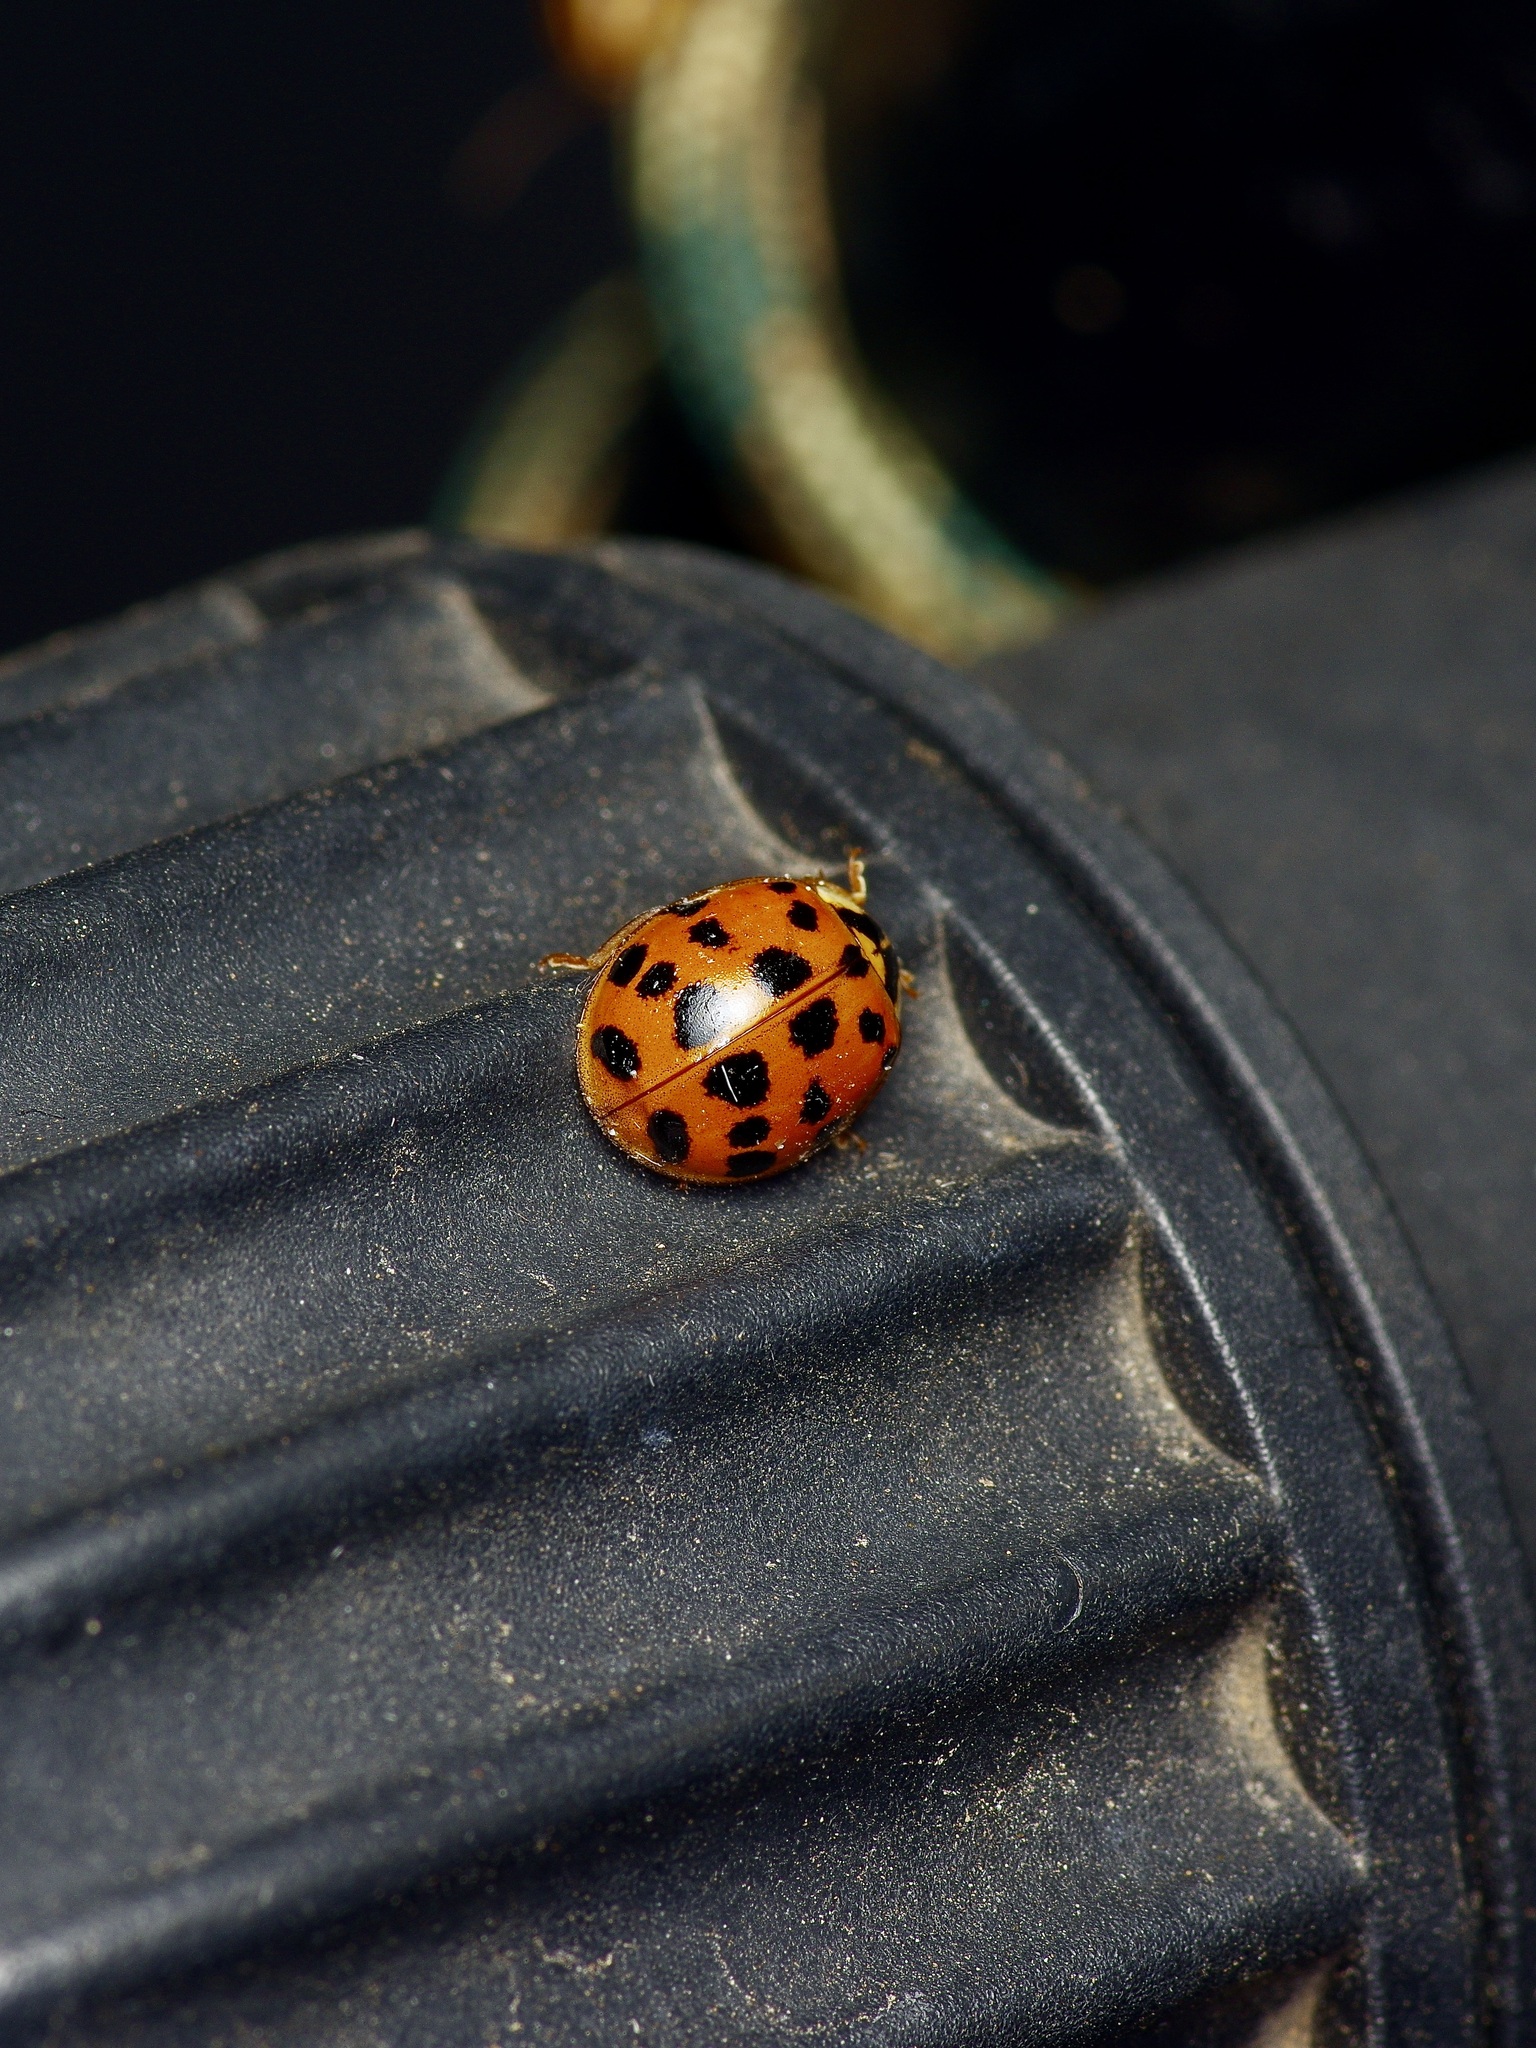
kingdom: Animalia
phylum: Arthropoda
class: Insecta
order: Coleoptera
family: Coccinellidae
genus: Harmonia
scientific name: Harmonia axyridis
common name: Harlequin ladybird
